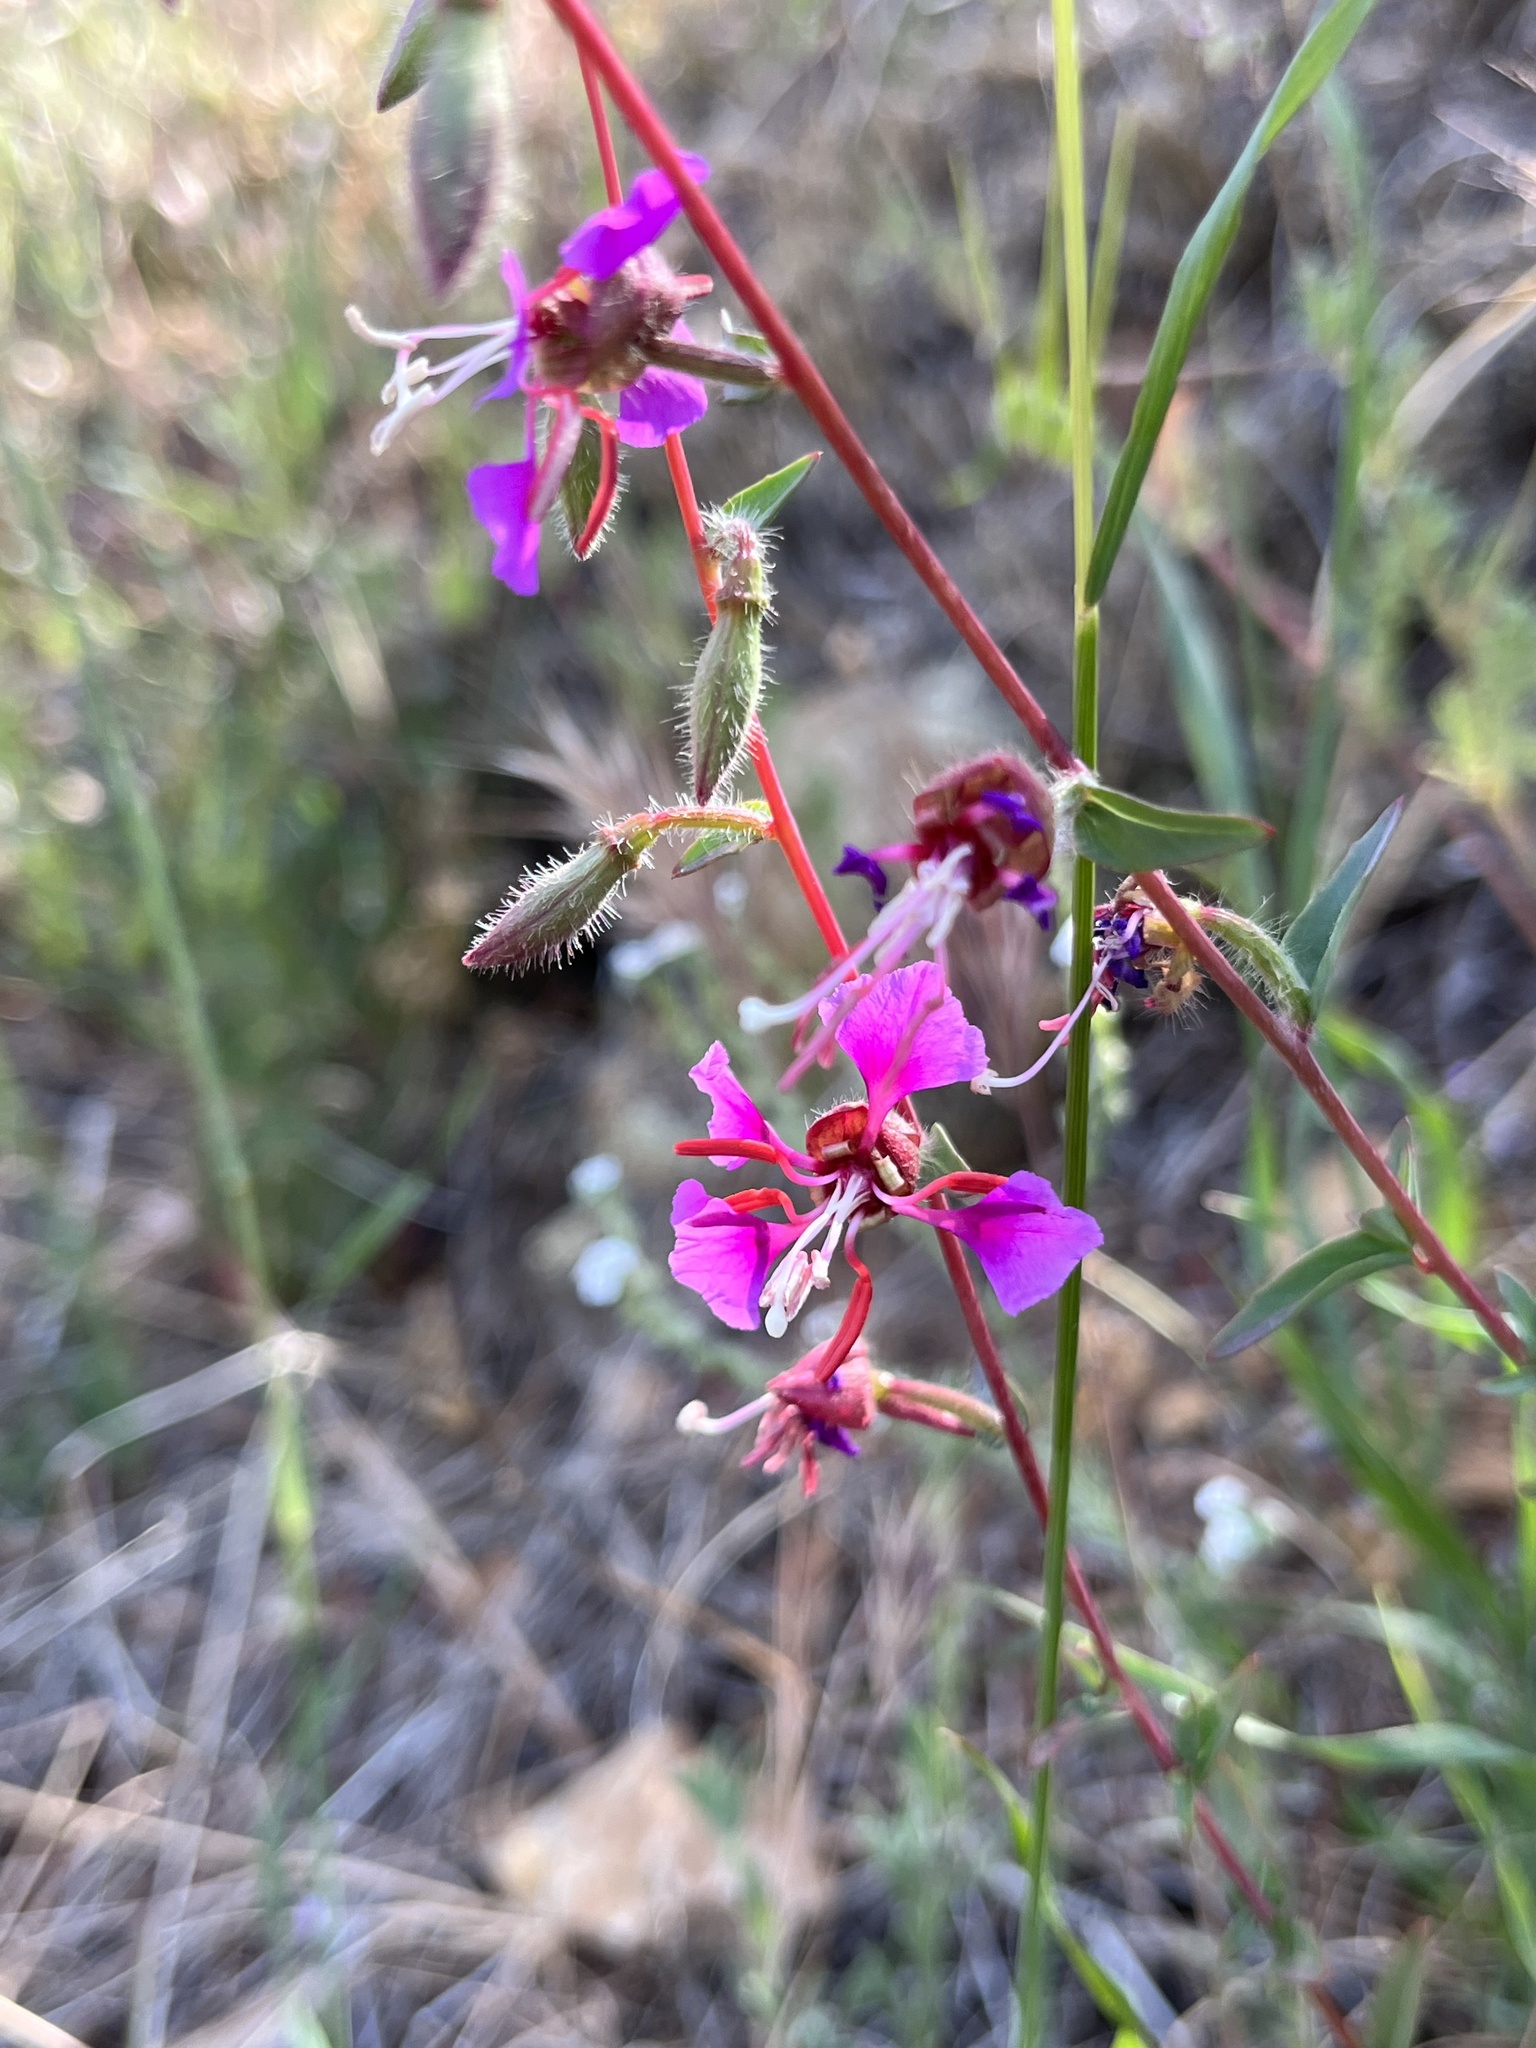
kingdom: Plantae
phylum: Tracheophyta
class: Magnoliopsida
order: Myrtales
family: Onagraceae
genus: Clarkia
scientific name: Clarkia unguiculata
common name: Clarkia
